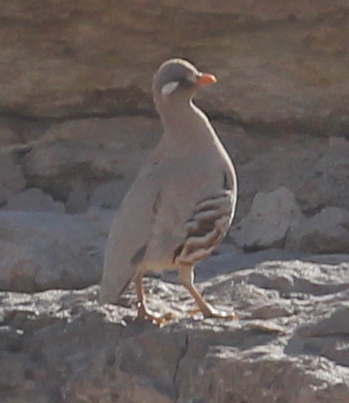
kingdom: Animalia
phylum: Chordata
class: Aves
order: Galliformes
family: Phasianidae
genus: Ammoperdix
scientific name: Ammoperdix heyi
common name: Sand partridge
